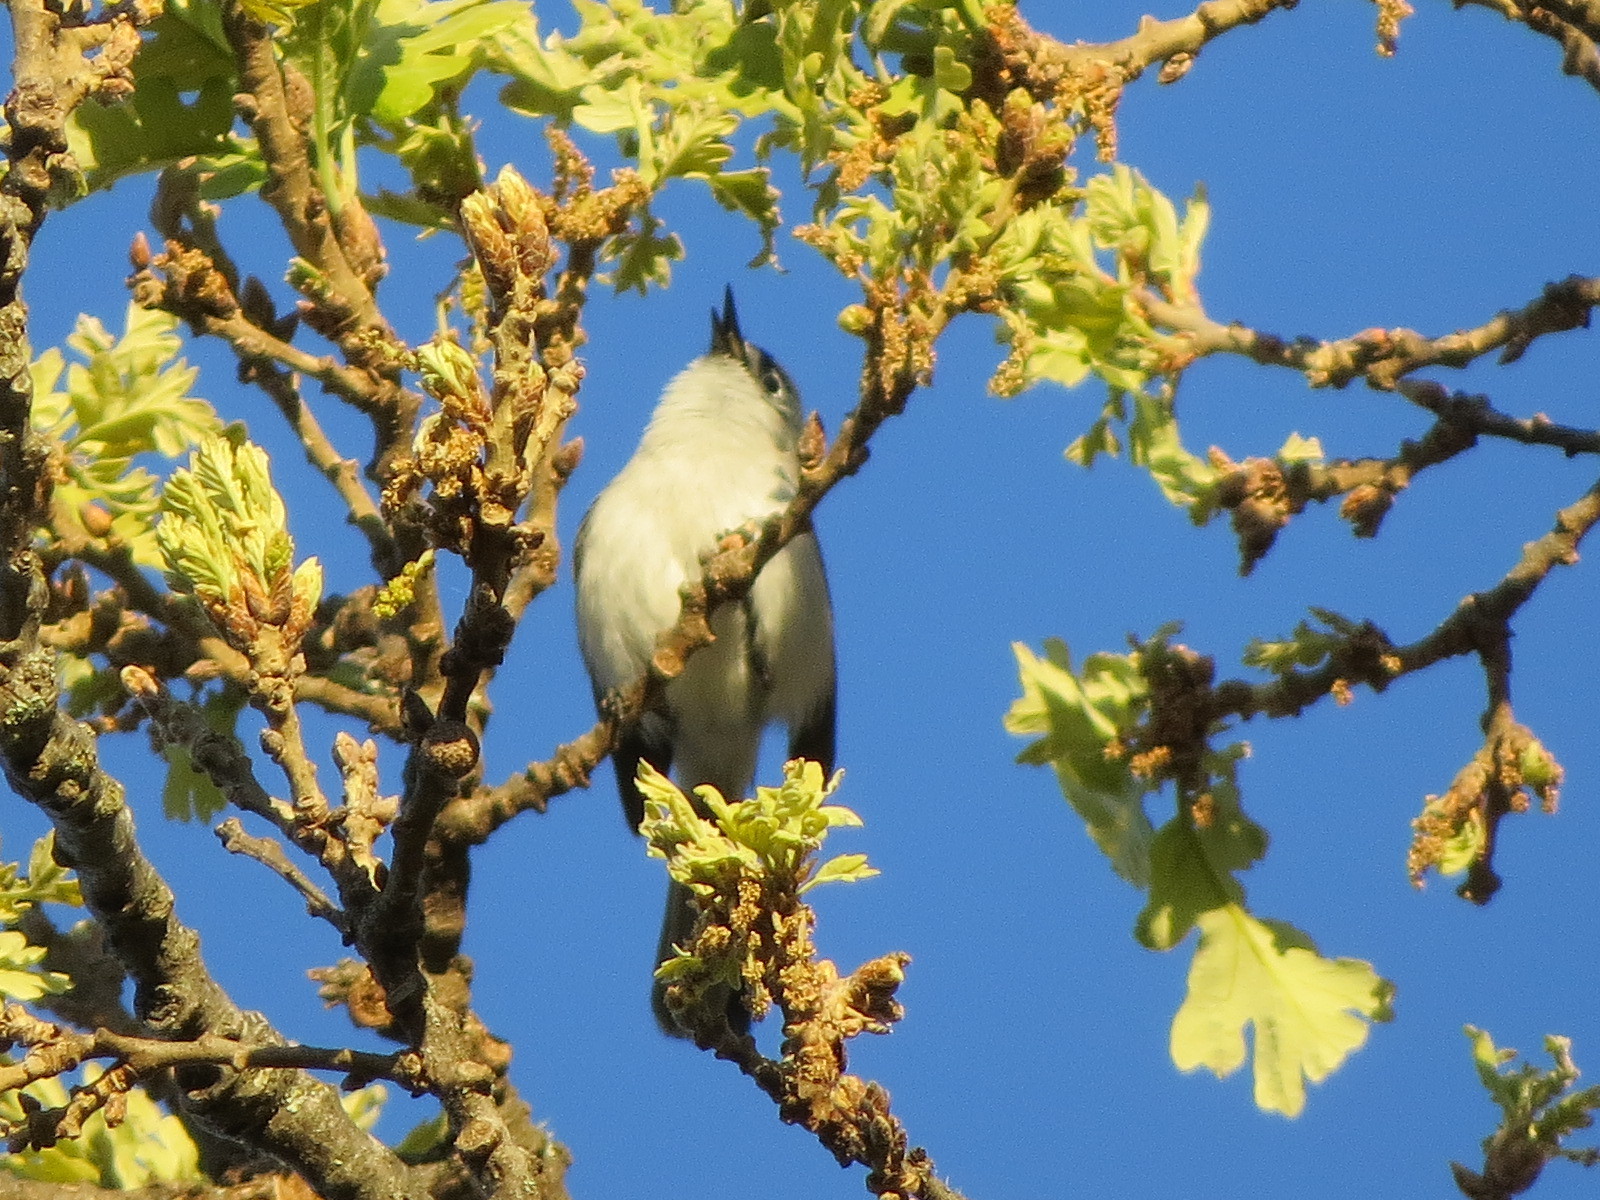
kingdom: Animalia
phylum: Chordata
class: Aves
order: Passeriformes
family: Polioptilidae
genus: Polioptila
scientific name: Polioptila caerulea
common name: Blue-gray gnatcatcher
